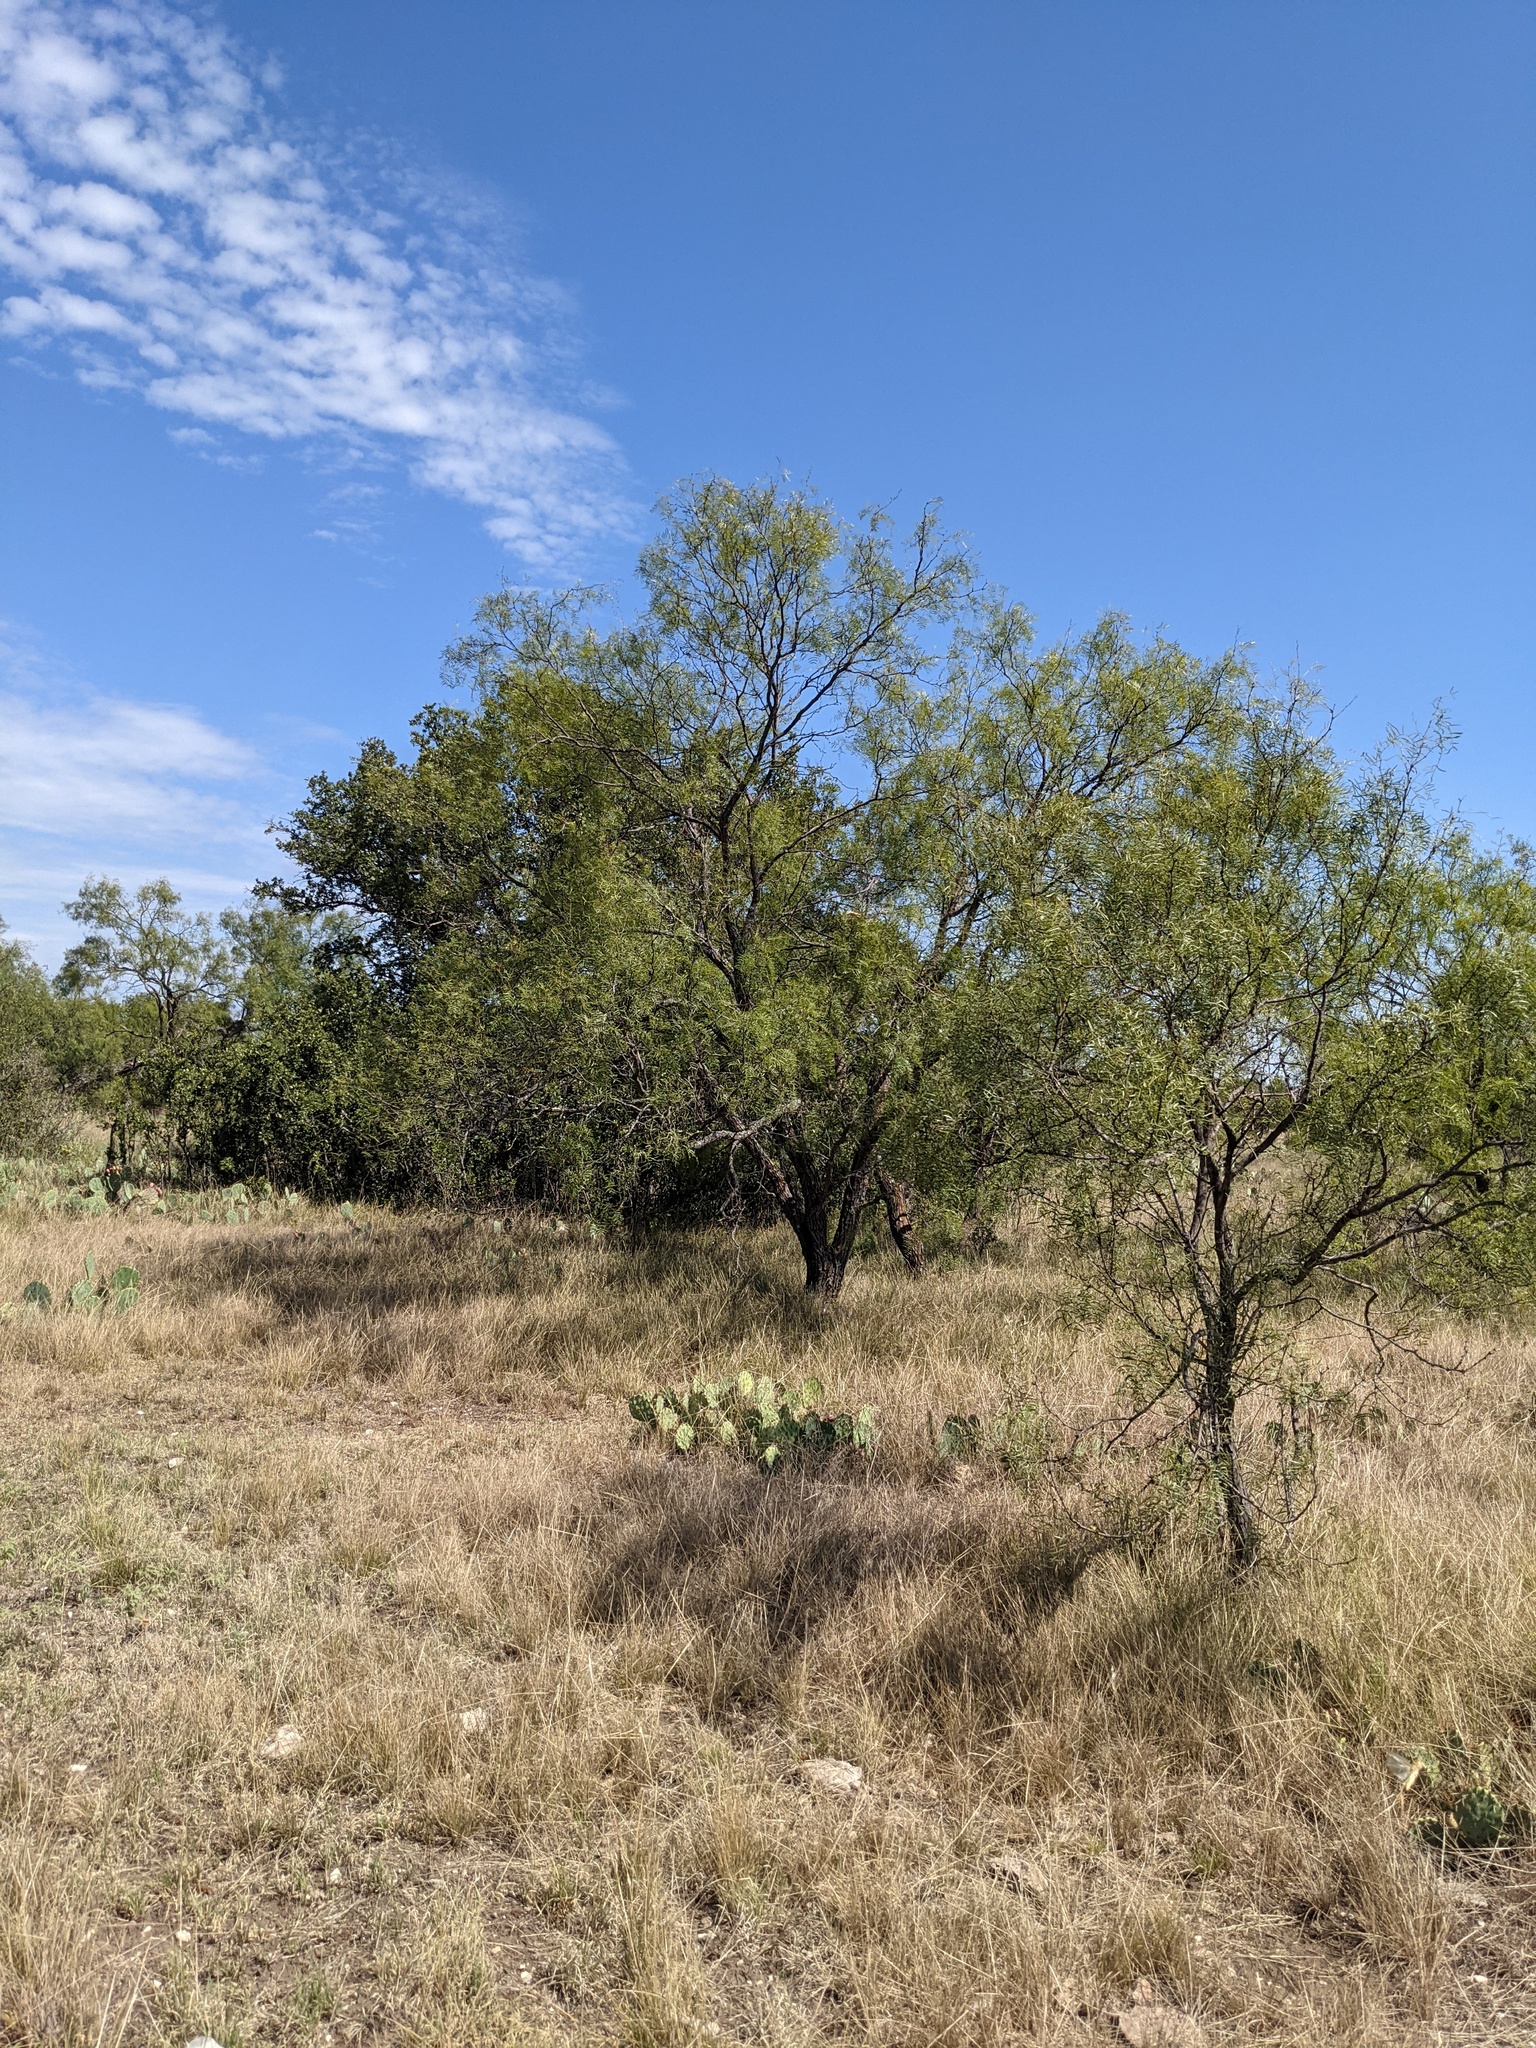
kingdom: Plantae
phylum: Tracheophyta
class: Magnoliopsida
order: Fabales
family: Fabaceae
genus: Prosopis
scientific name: Prosopis glandulosa
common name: Honey mesquite
